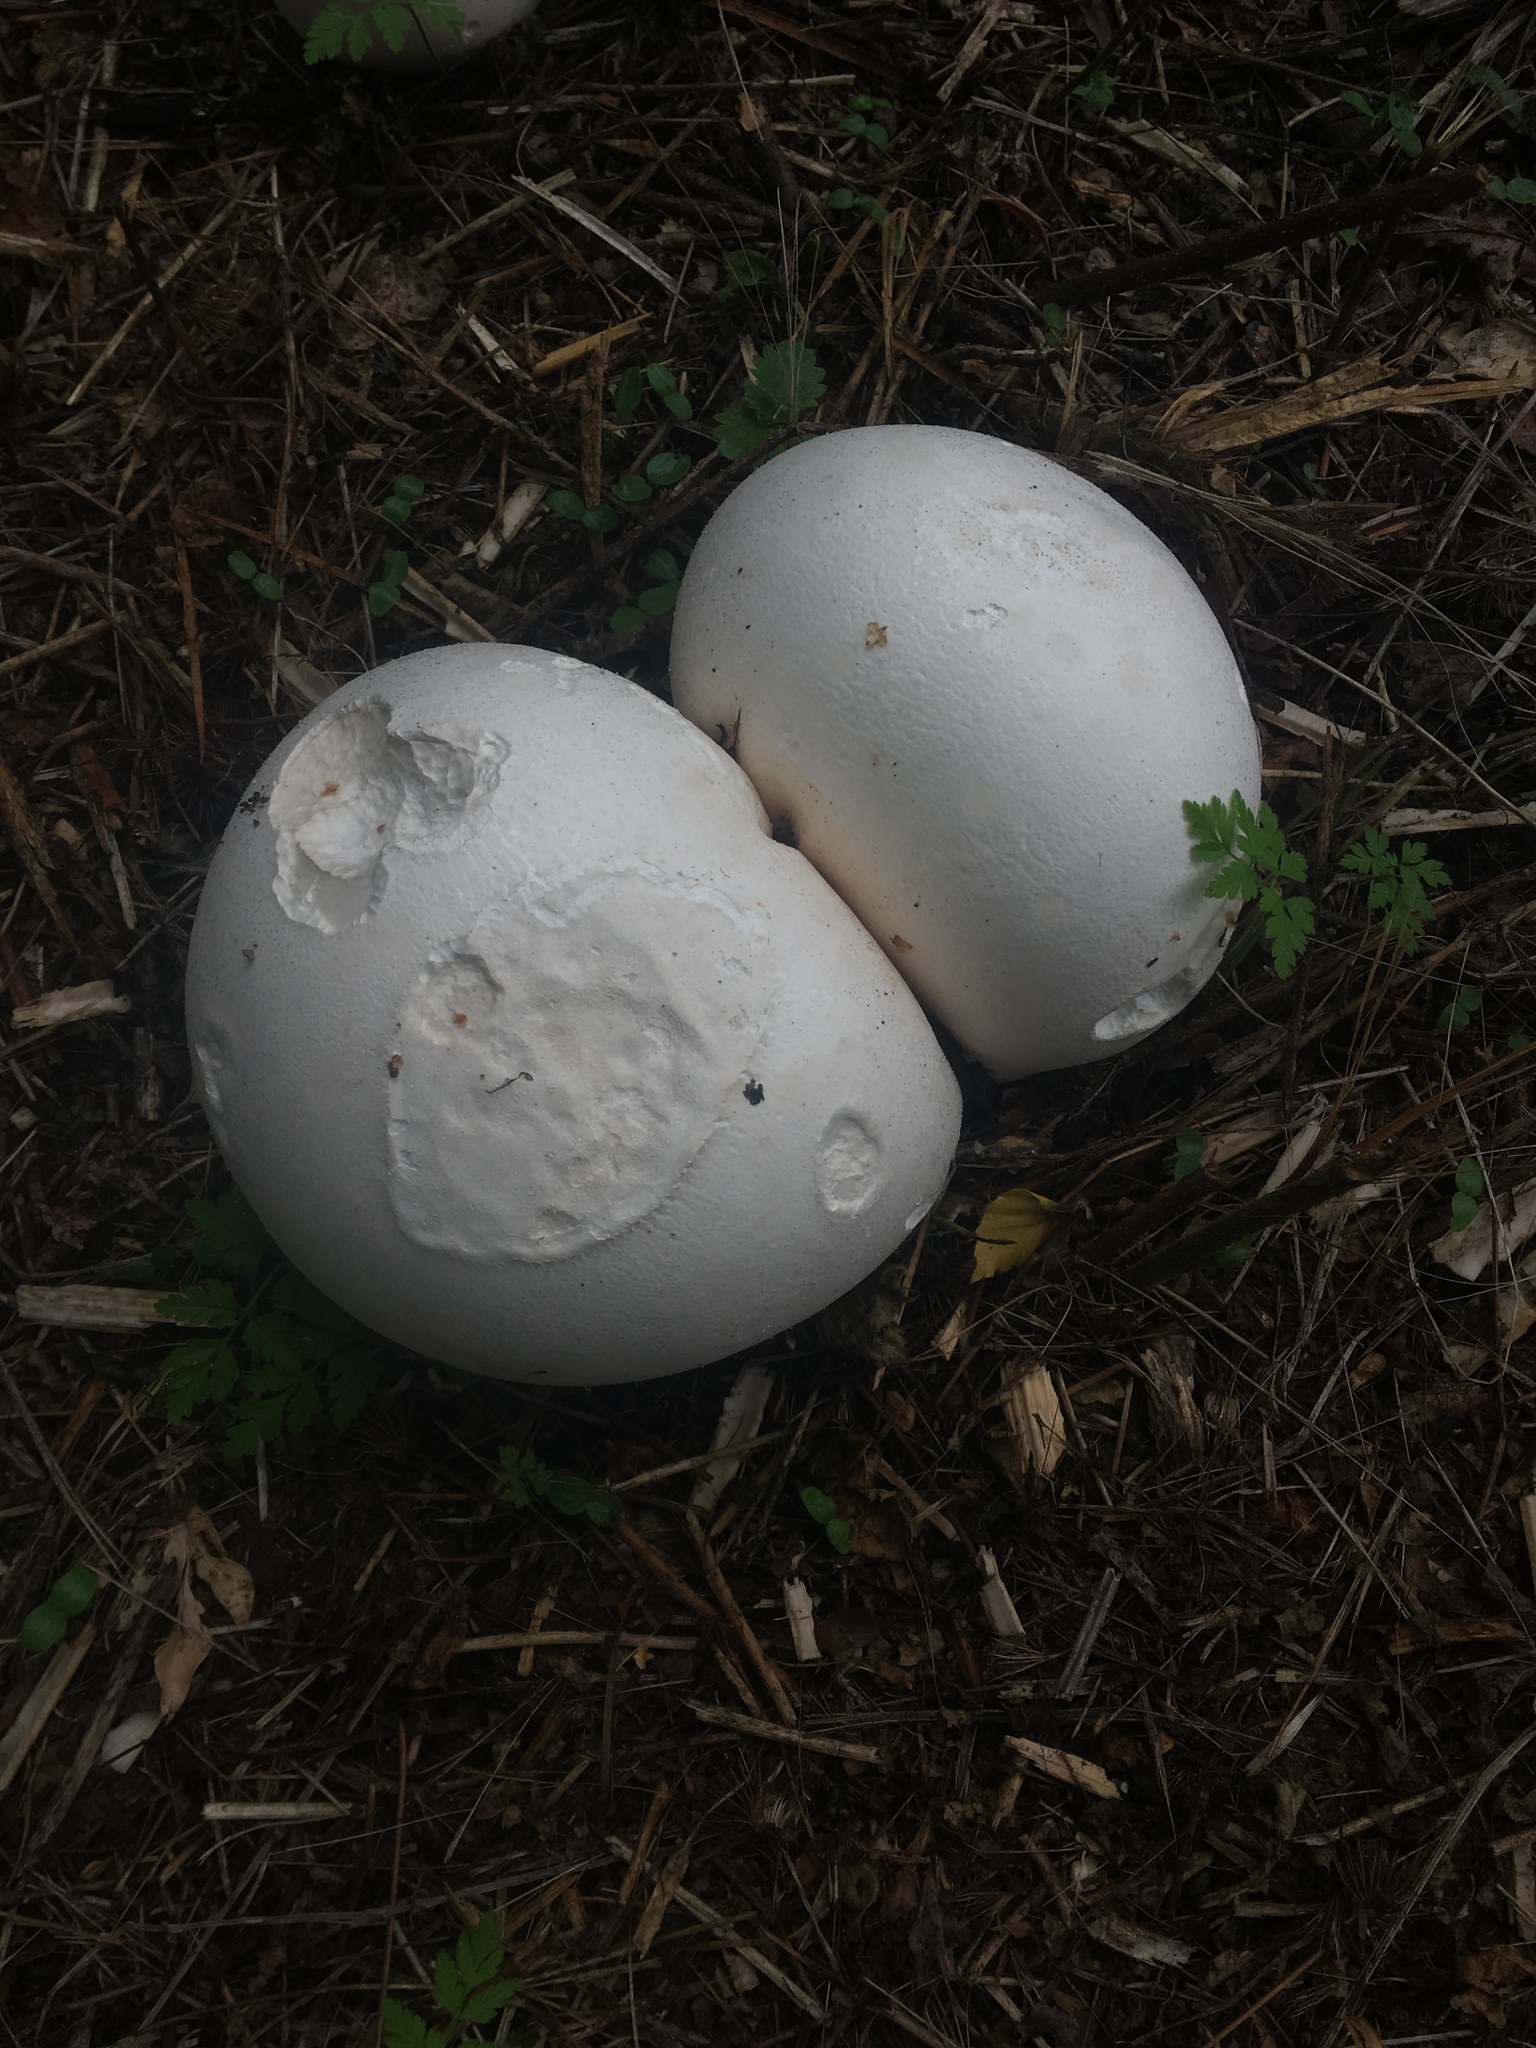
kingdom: Fungi
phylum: Basidiomycota
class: Agaricomycetes
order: Agaricales
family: Lycoperdaceae
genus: Calvatia
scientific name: Calvatia gigantea
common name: Giant puffball
